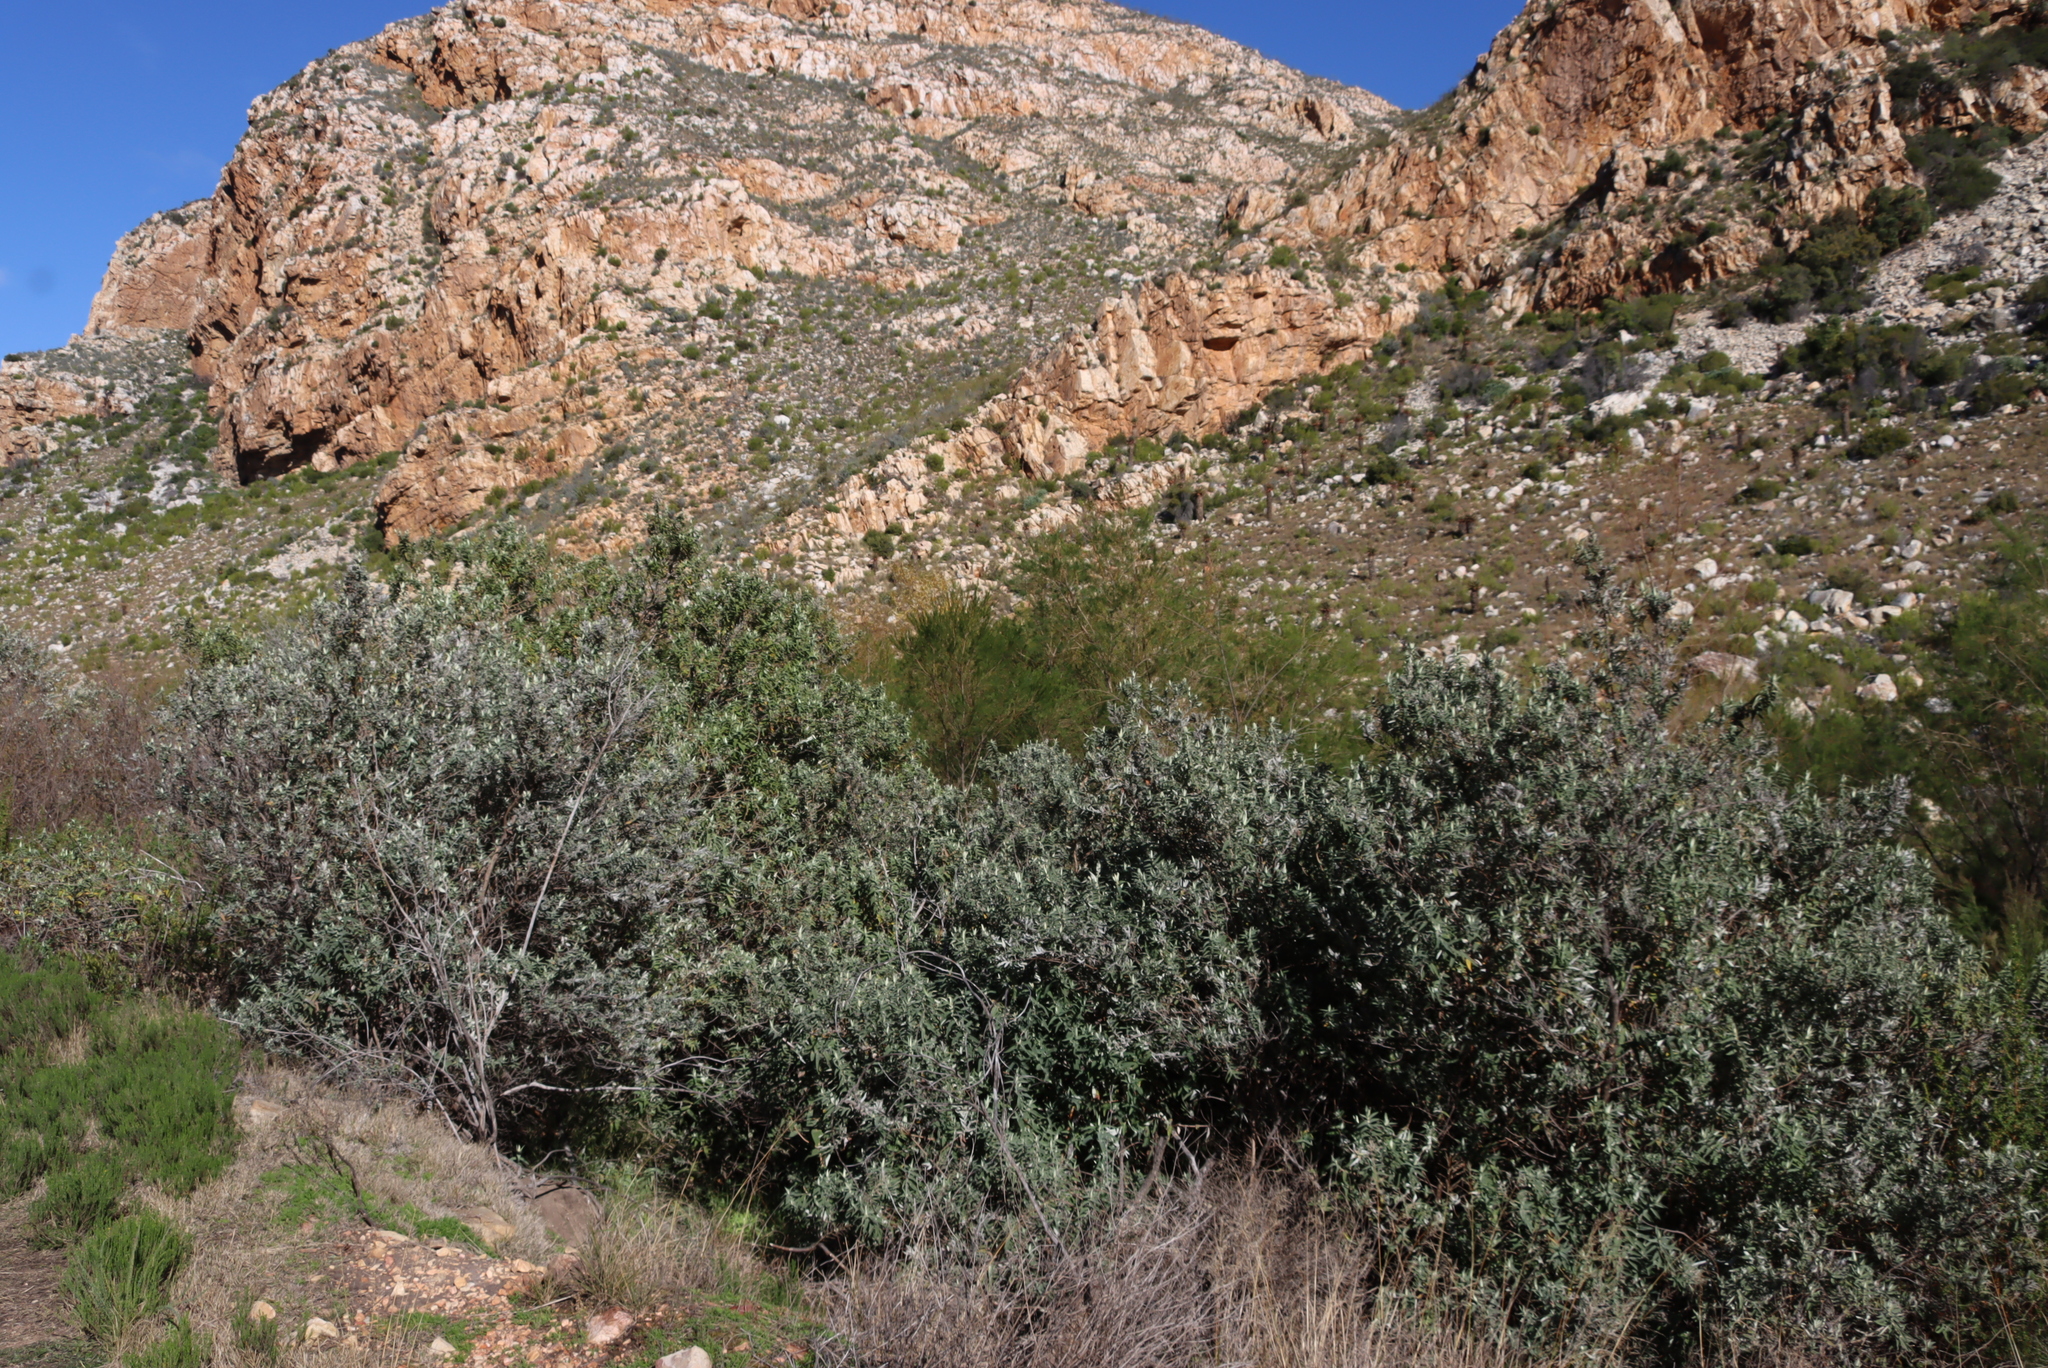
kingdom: Plantae
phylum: Tracheophyta
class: Magnoliopsida
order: Lamiales
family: Scrophulariaceae
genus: Buddleja
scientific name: Buddleja salviifolia
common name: Sagewood
